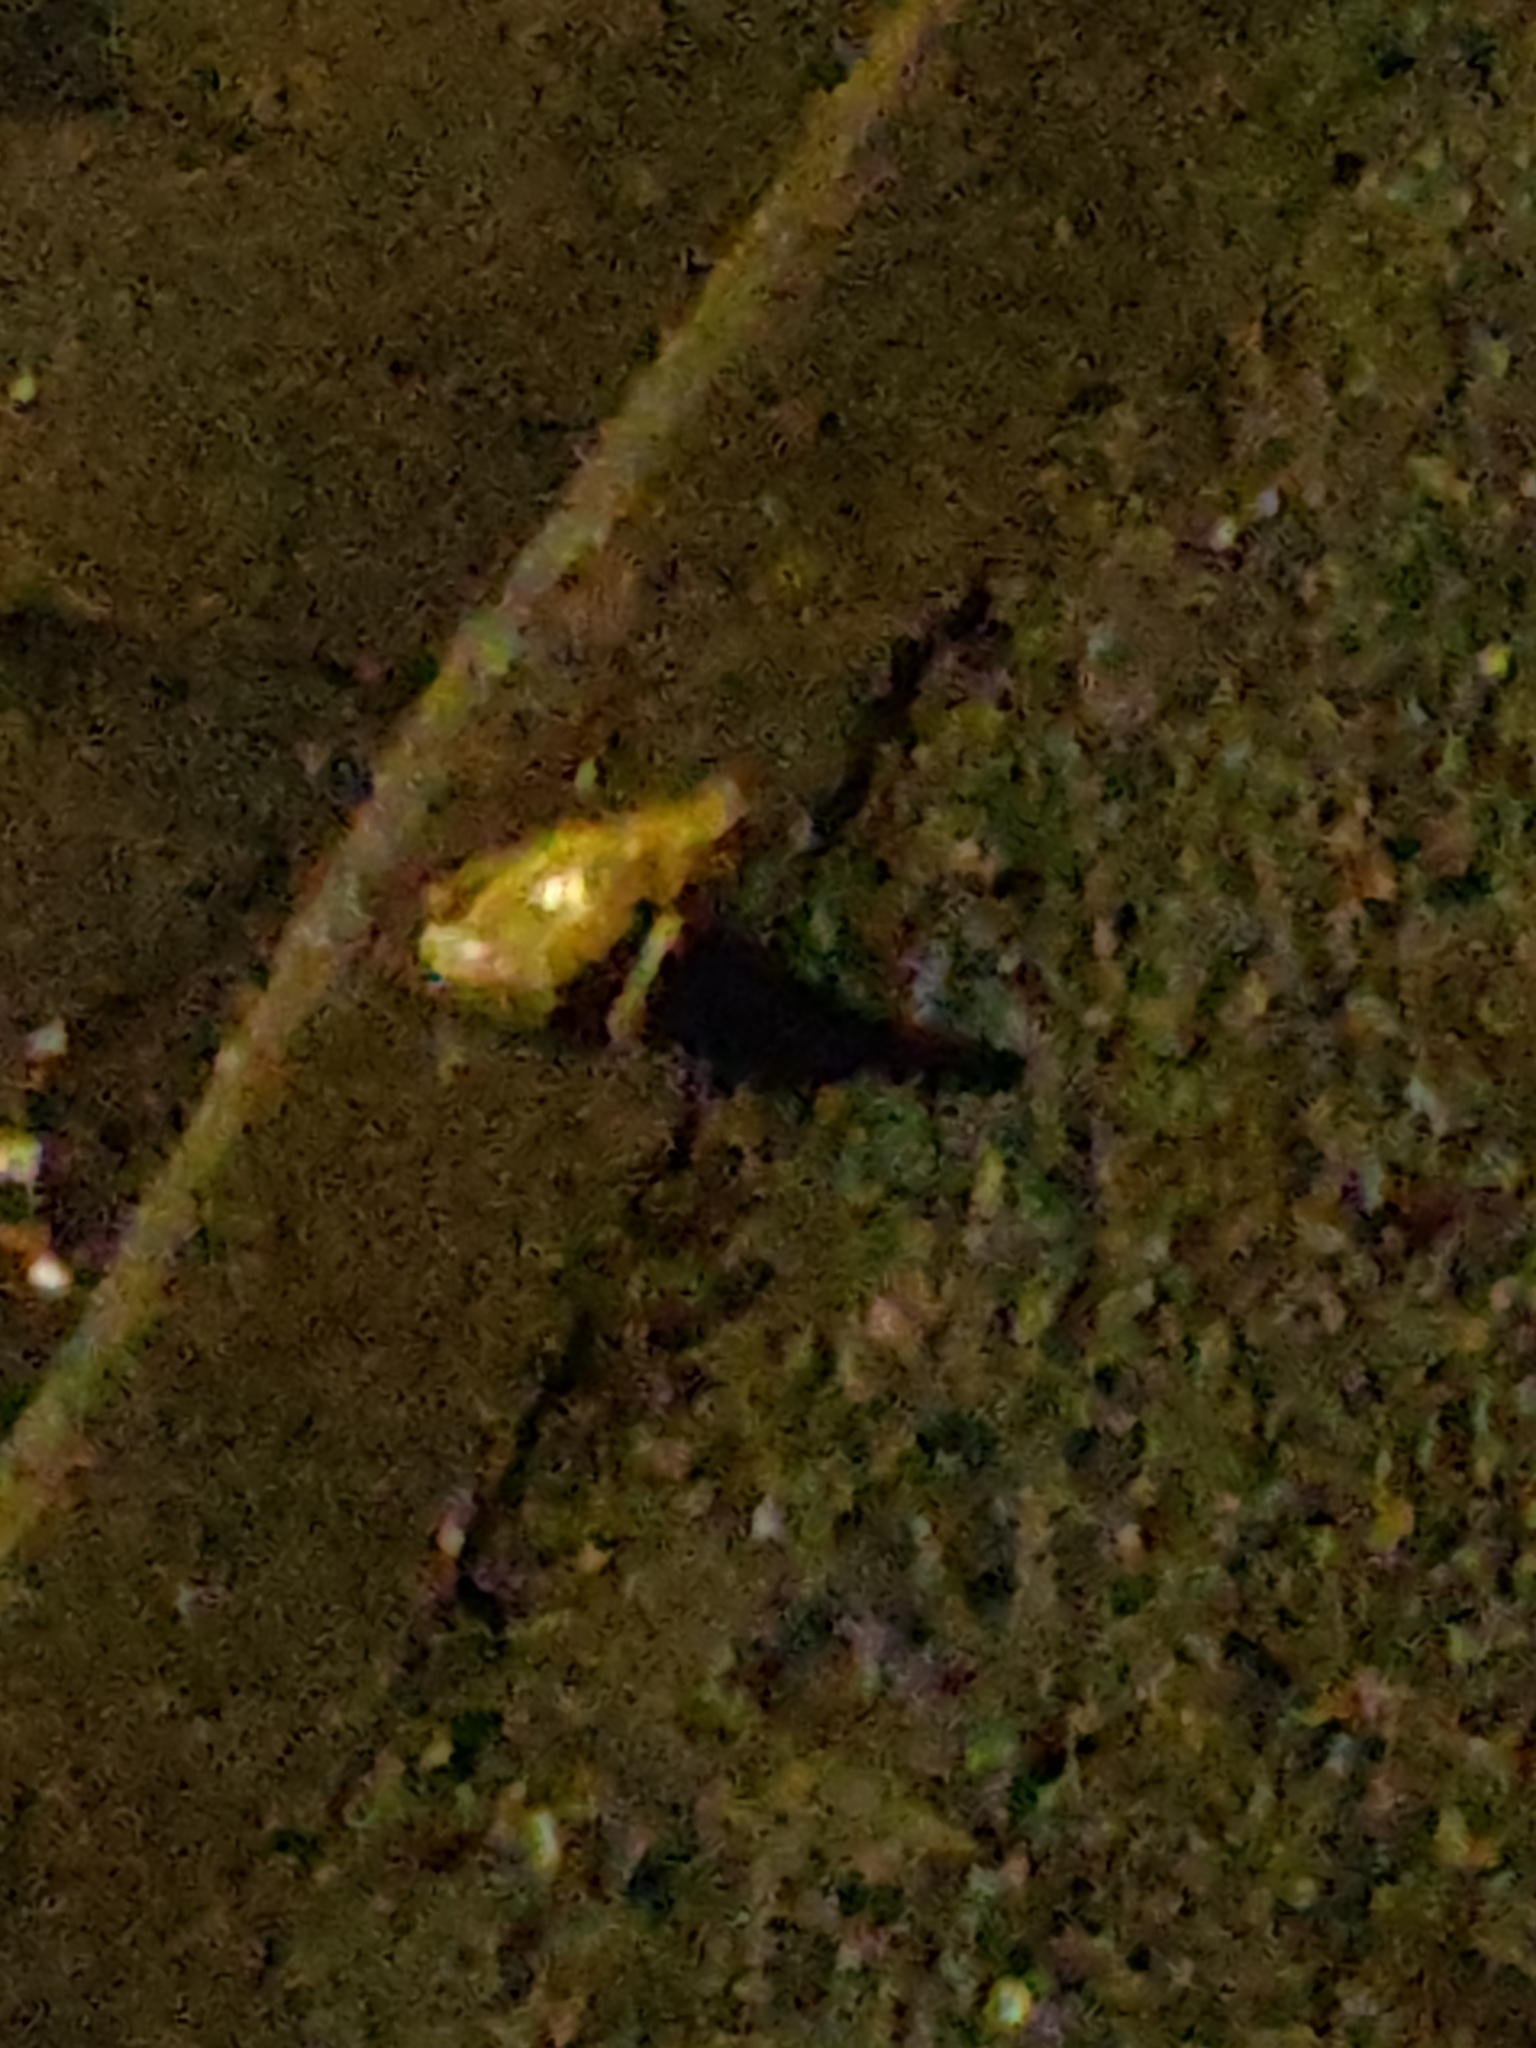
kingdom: Animalia
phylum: Chordata
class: Amphibia
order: Anura
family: Ranidae
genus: Rana
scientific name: Rana temporaria
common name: Common frog
